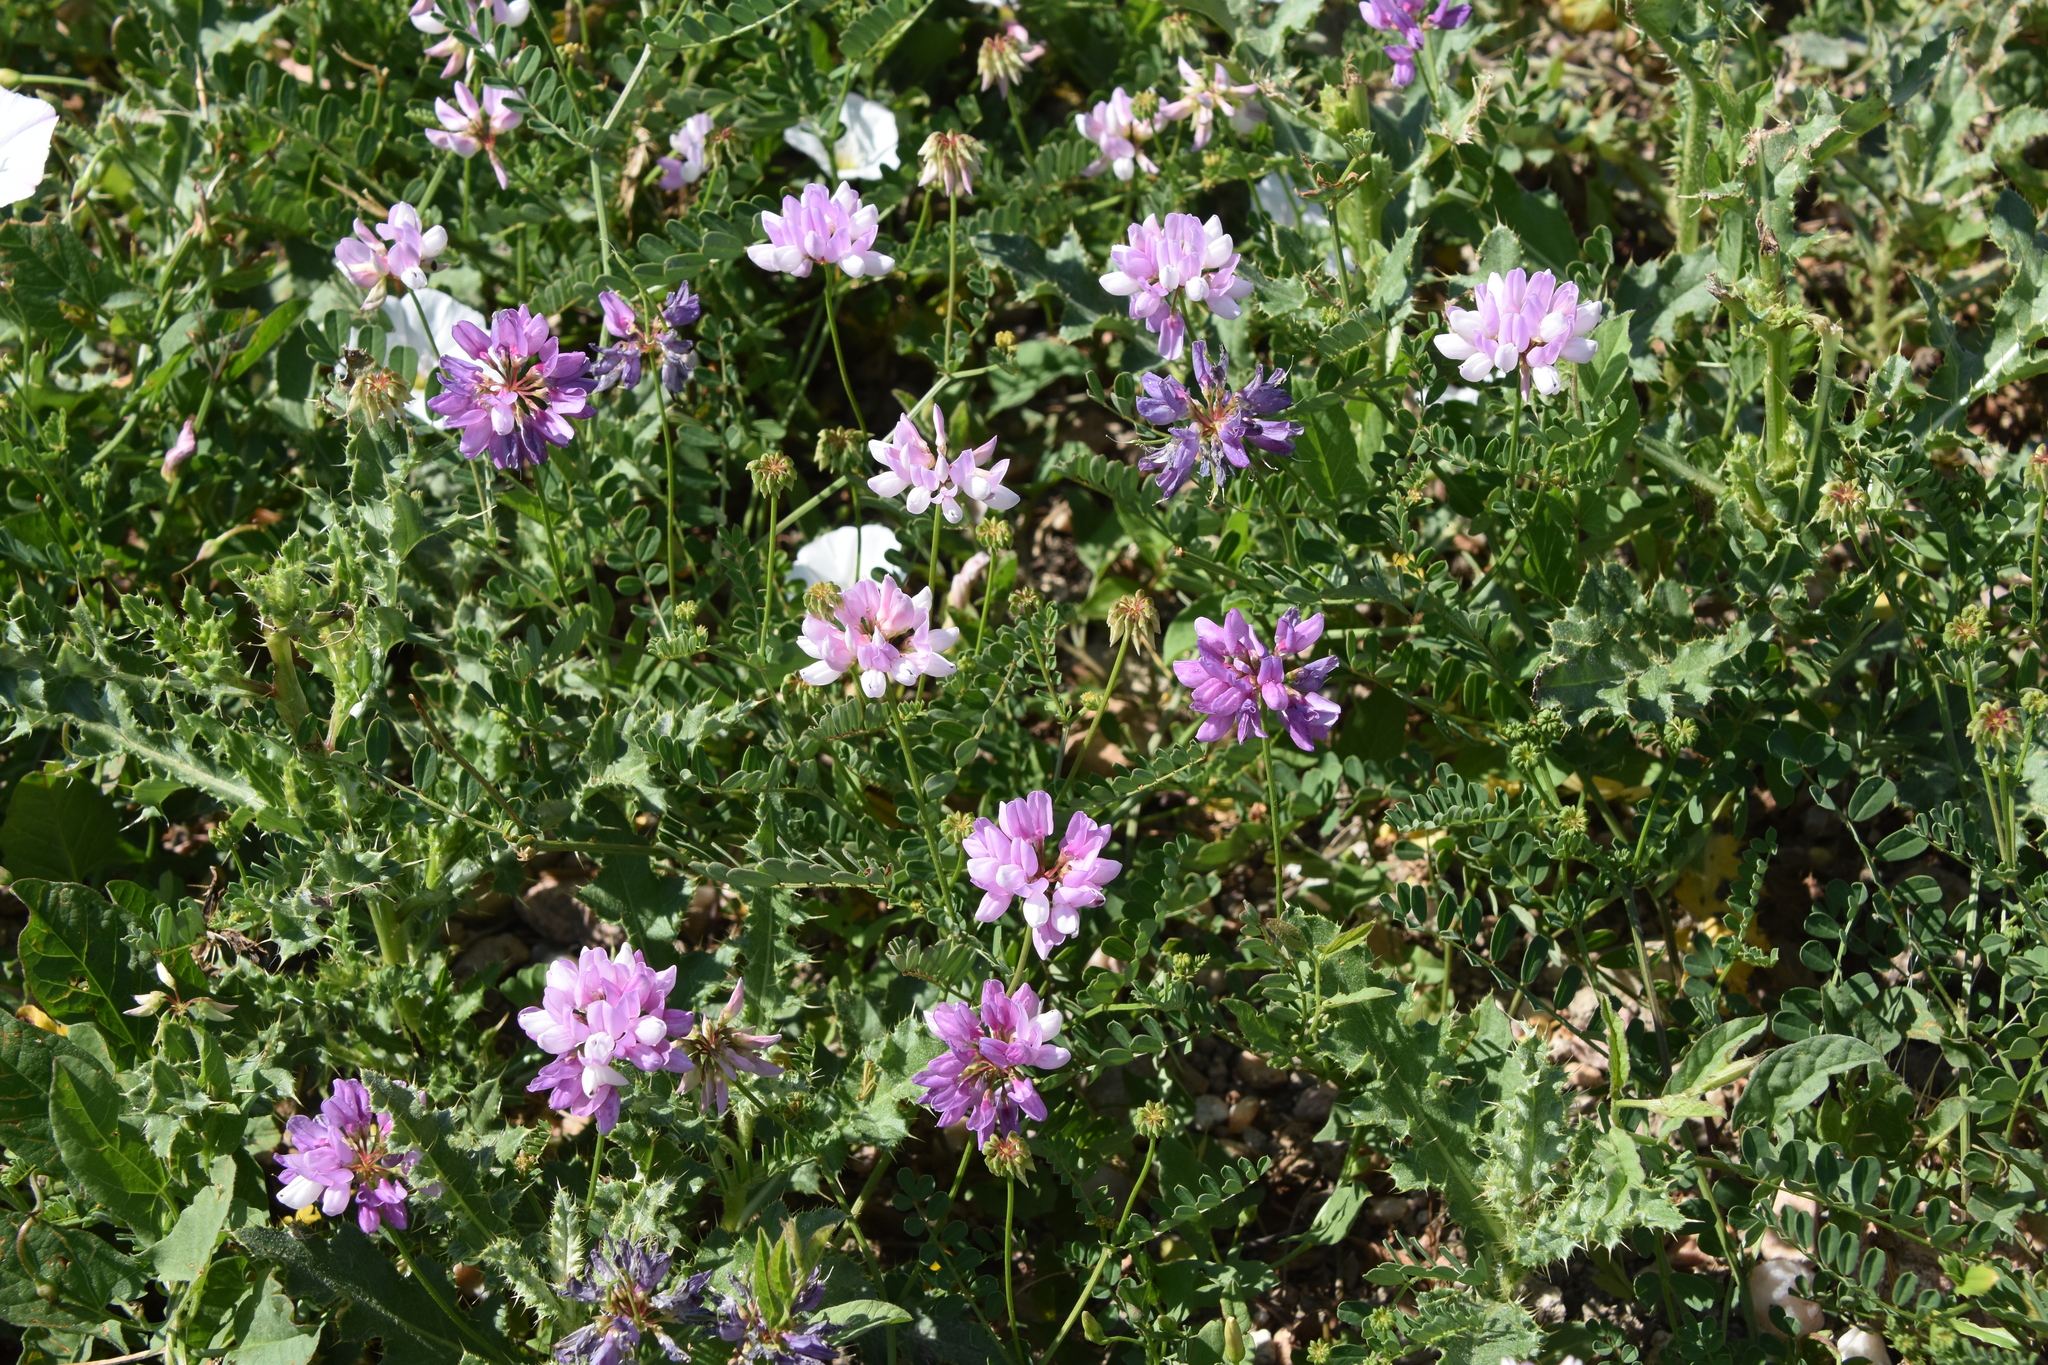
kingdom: Plantae
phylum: Tracheophyta
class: Magnoliopsida
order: Fabales
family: Fabaceae
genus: Coronilla
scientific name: Coronilla varia
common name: Crownvetch
